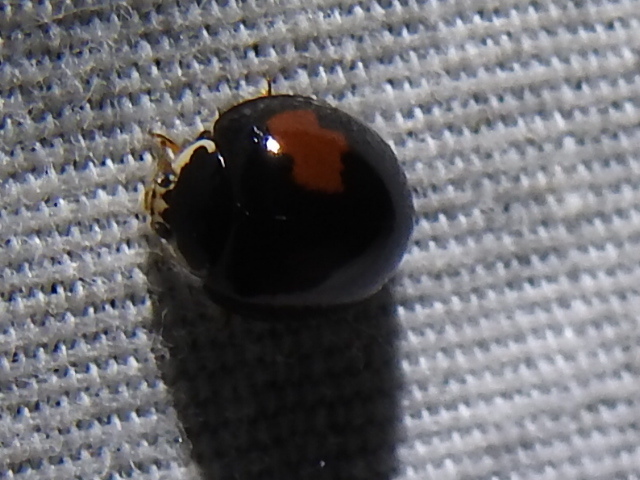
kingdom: Animalia
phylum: Arthropoda
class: Insecta
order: Coleoptera
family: Coccinellidae
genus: Olla
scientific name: Olla v-nigrum
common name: Ashy gray lady beetle
